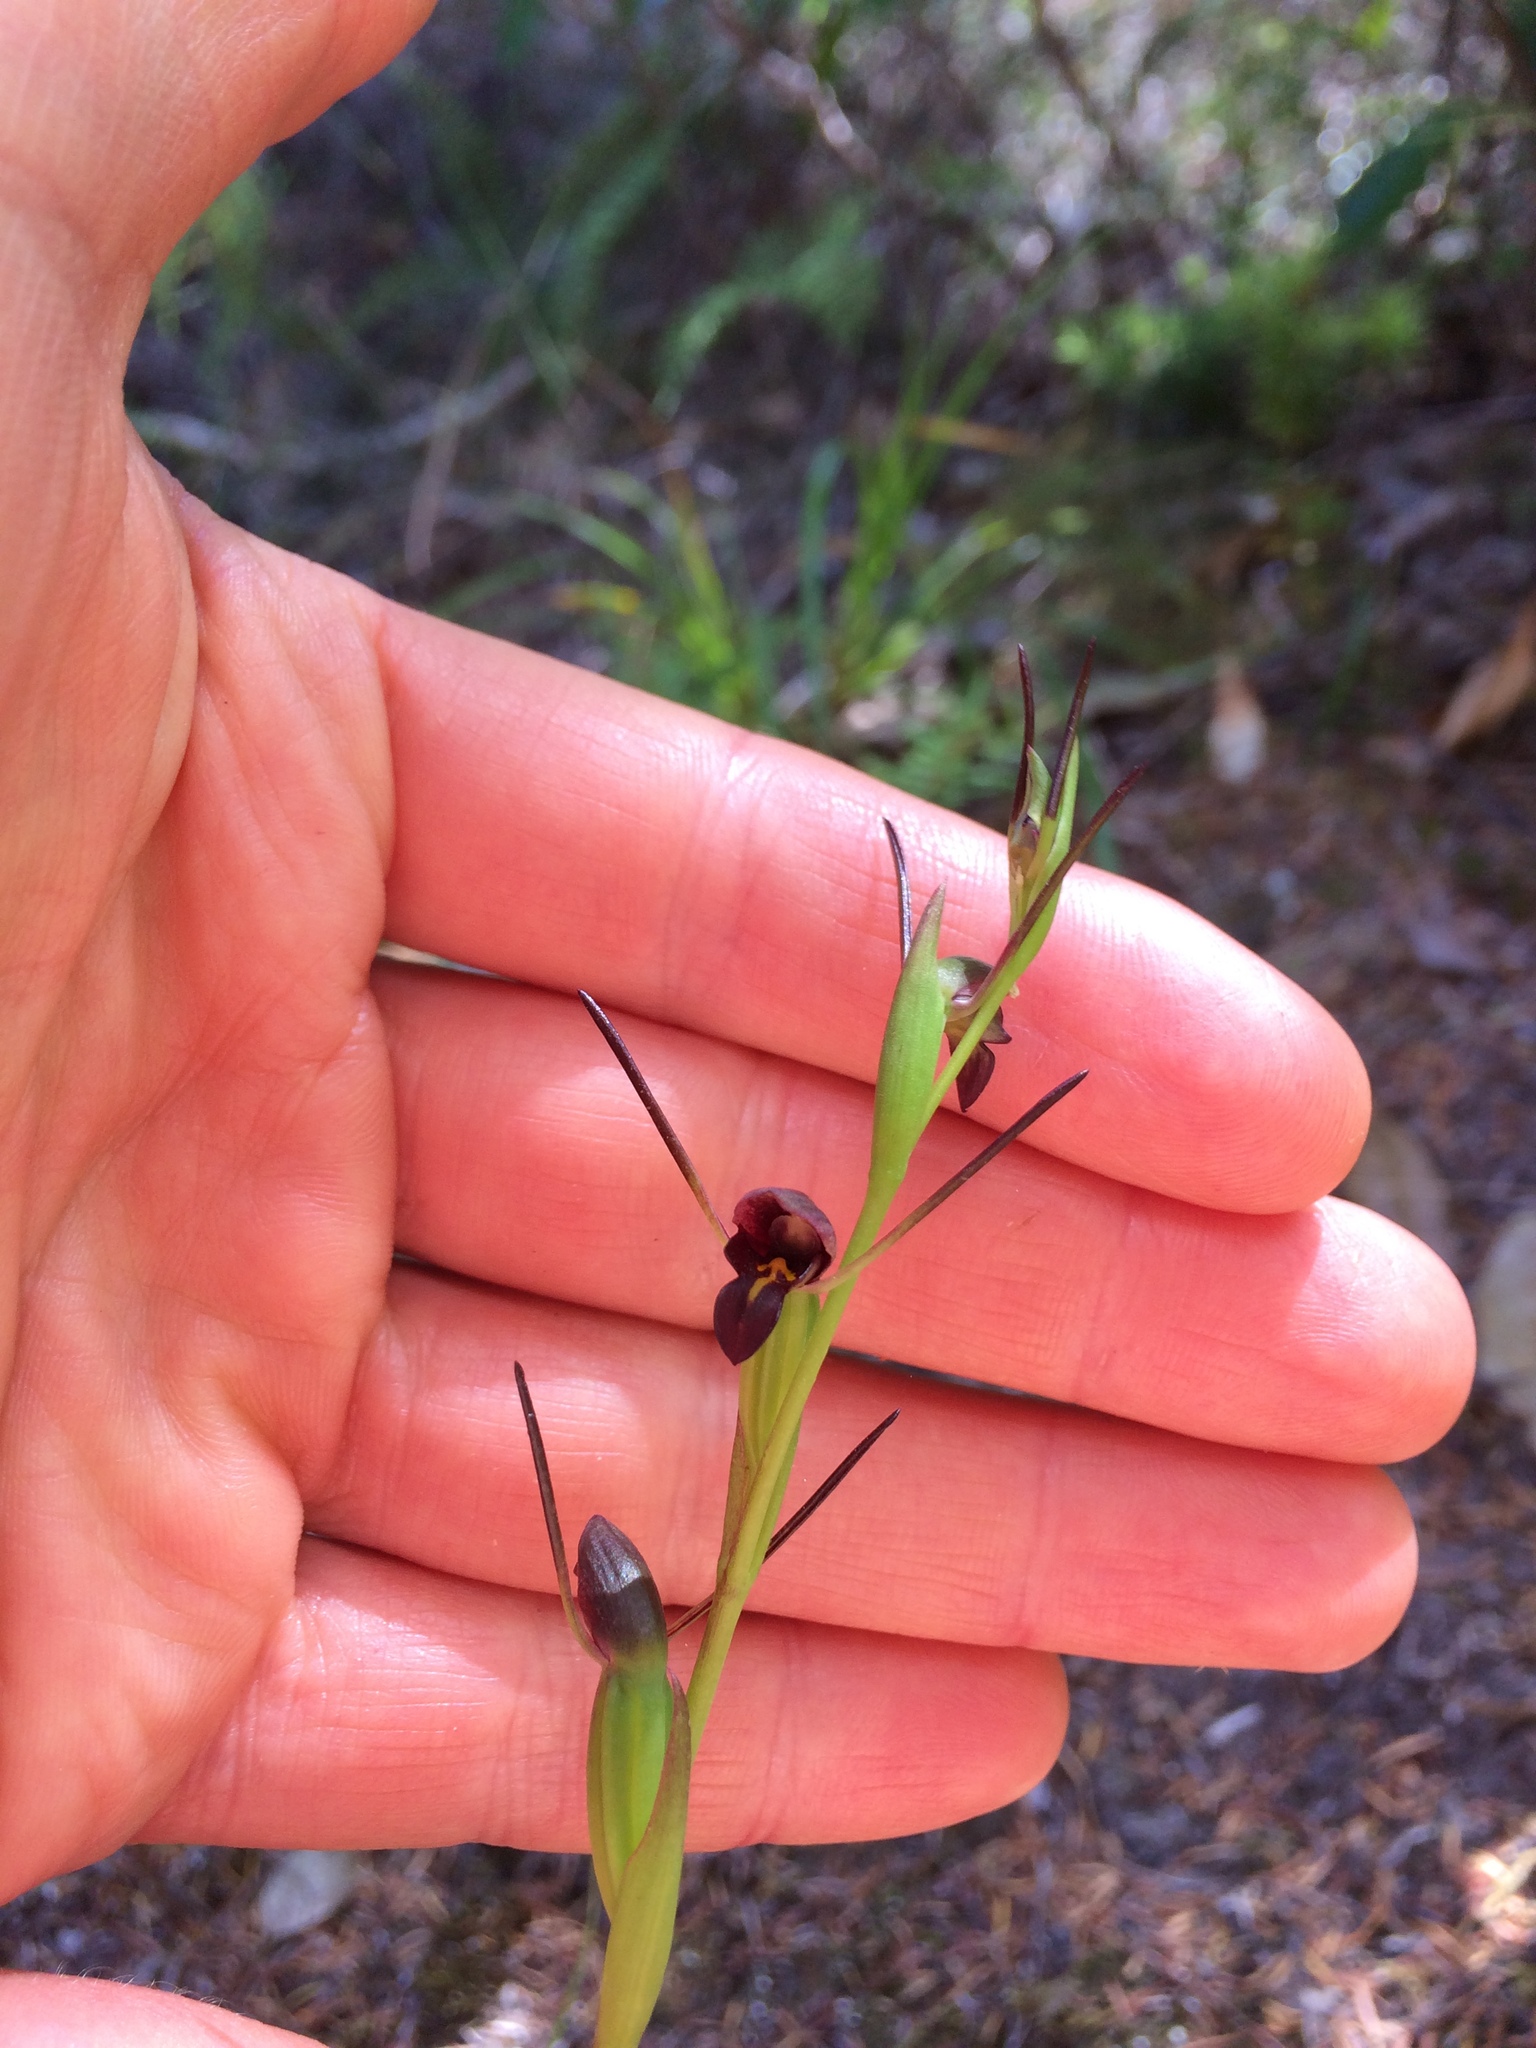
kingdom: Plantae
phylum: Tracheophyta
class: Liliopsida
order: Asparagales
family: Orchidaceae
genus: Orthoceras
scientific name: Orthoceras novae-zeelandiae
